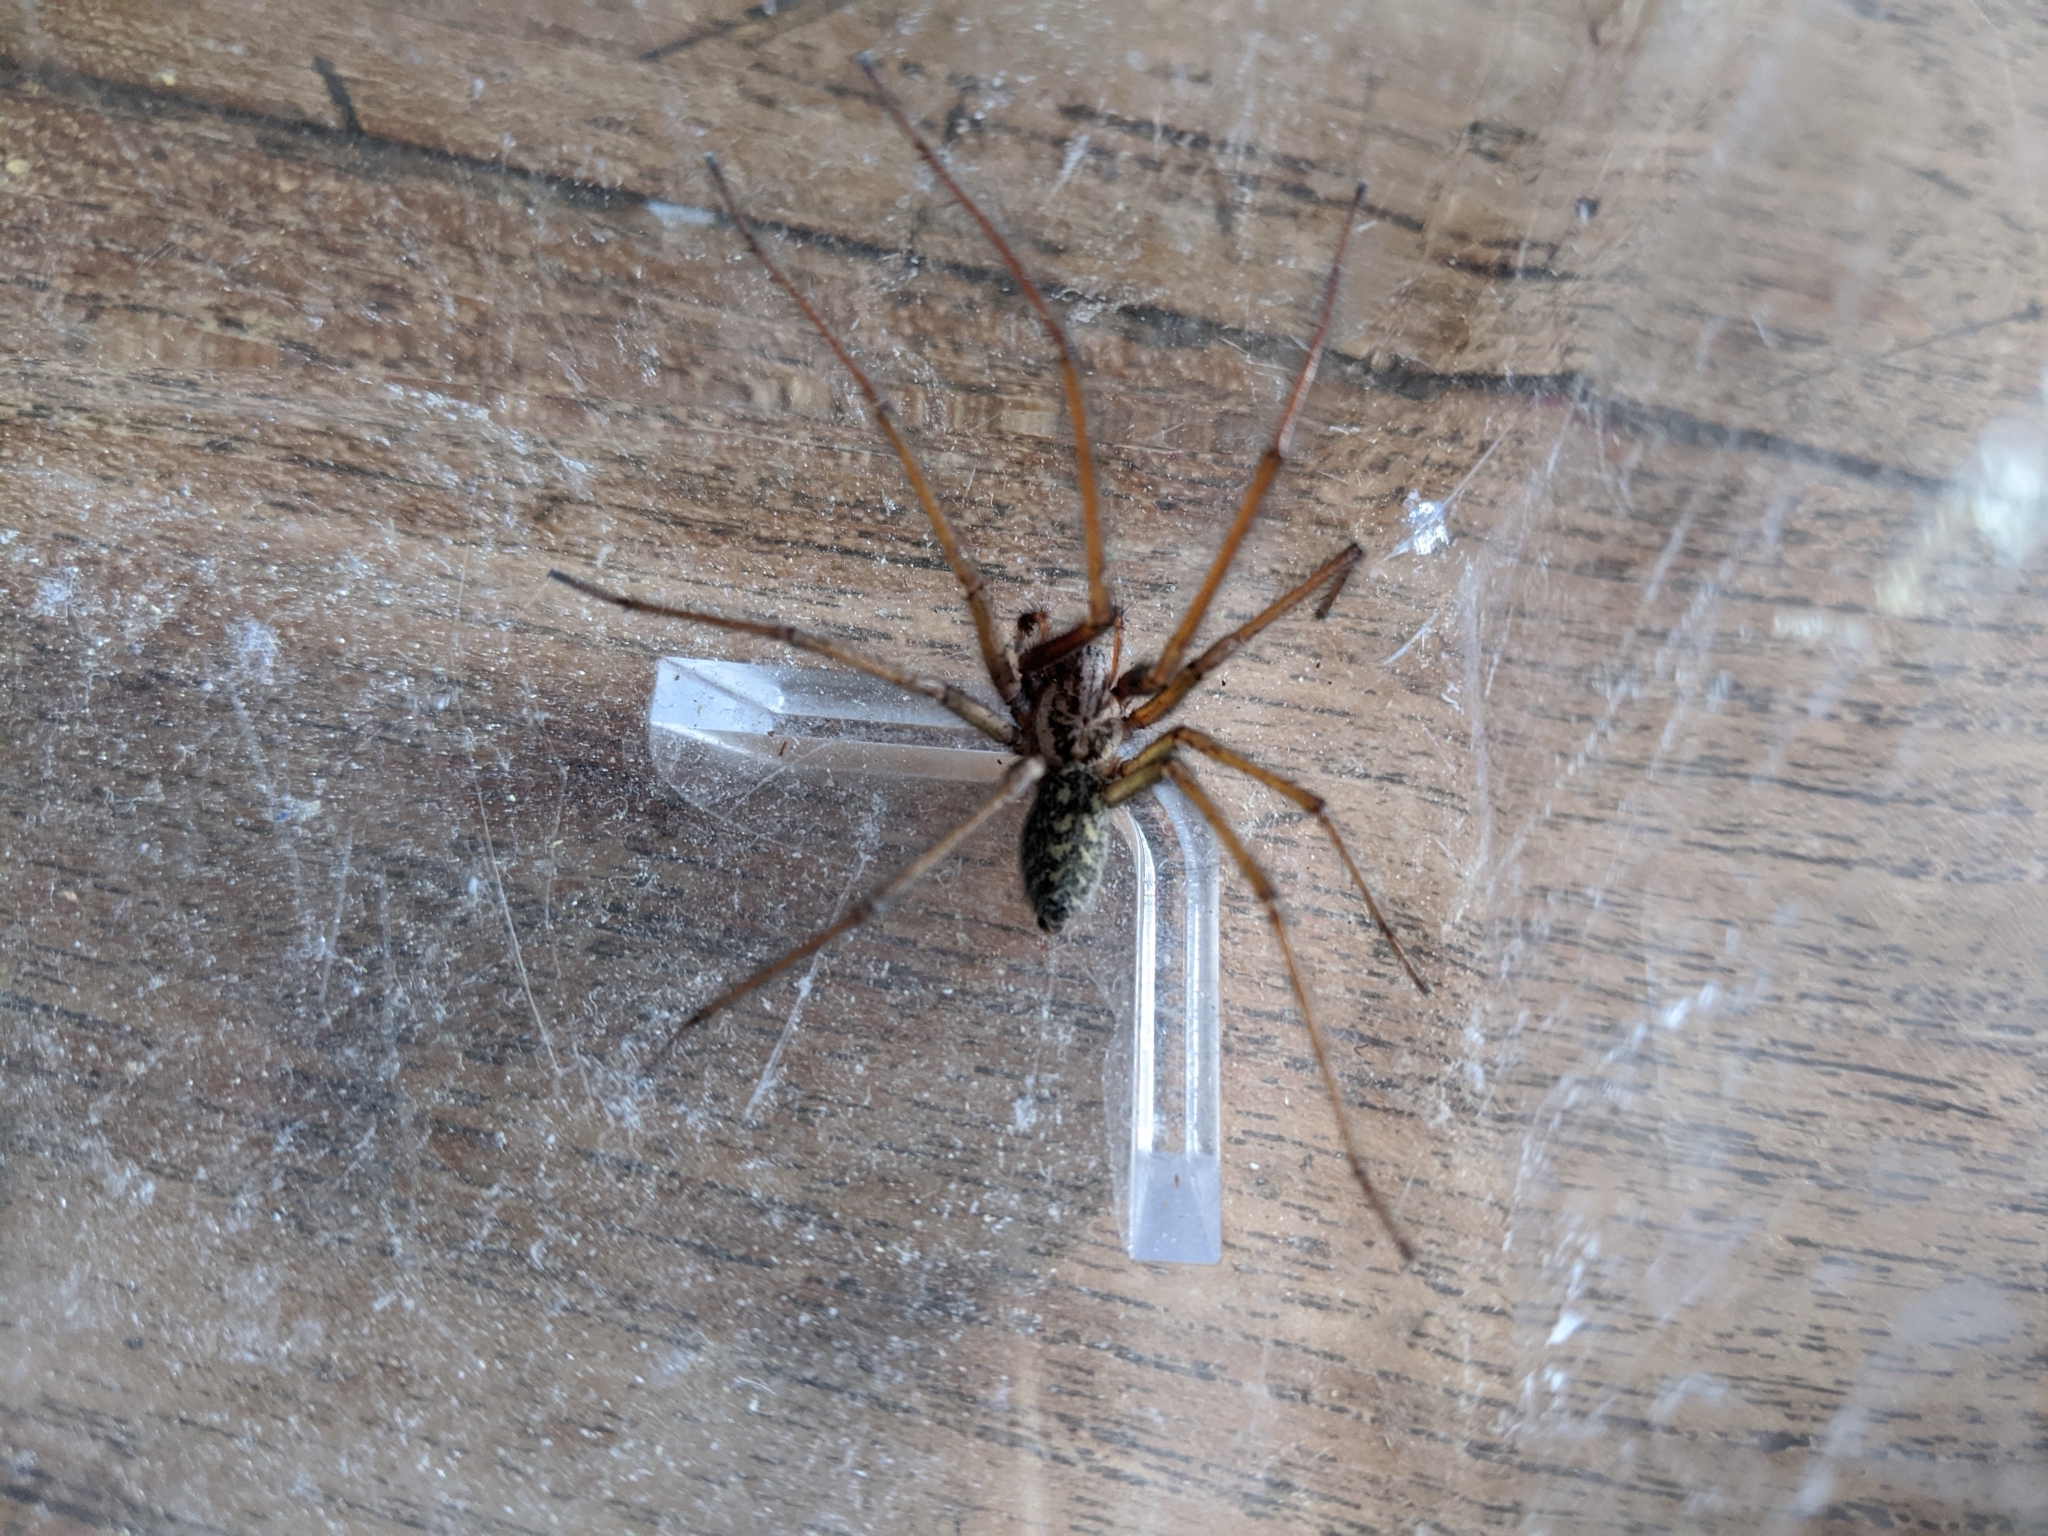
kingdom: Animalia
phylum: Arthropoda
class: Arachnida
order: Araneae
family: Agelenidae
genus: Eratigena
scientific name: Eratigena atrica
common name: Giant house spider
